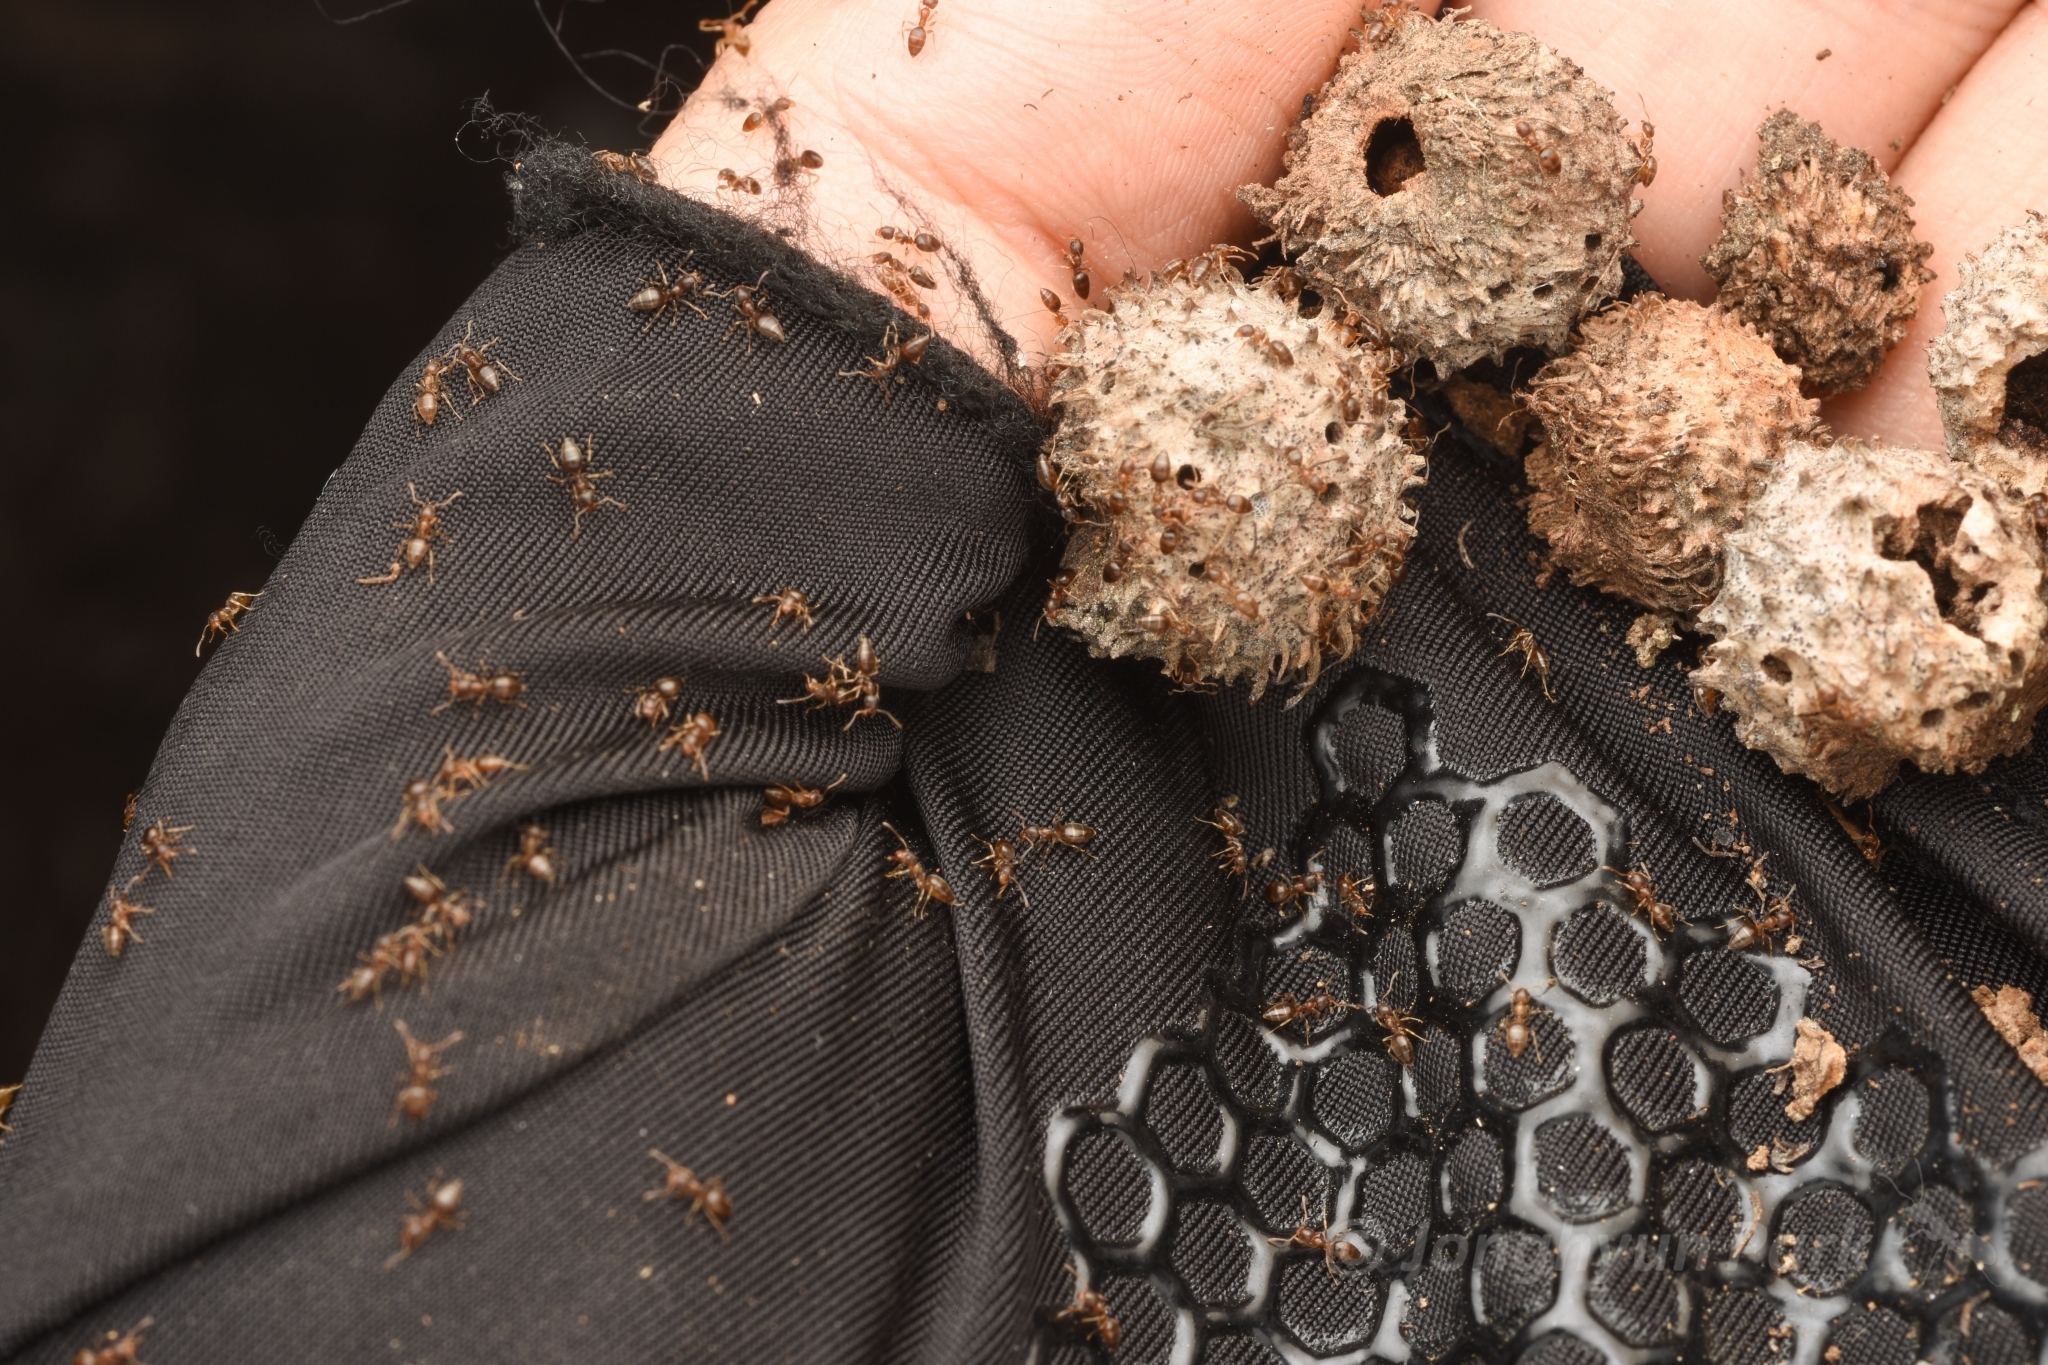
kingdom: Animalia
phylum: Arthropoda
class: Insecta
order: Hymenoptera
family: Formicidae
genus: Technomyrmex
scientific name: Technomyrmex gibbosus
